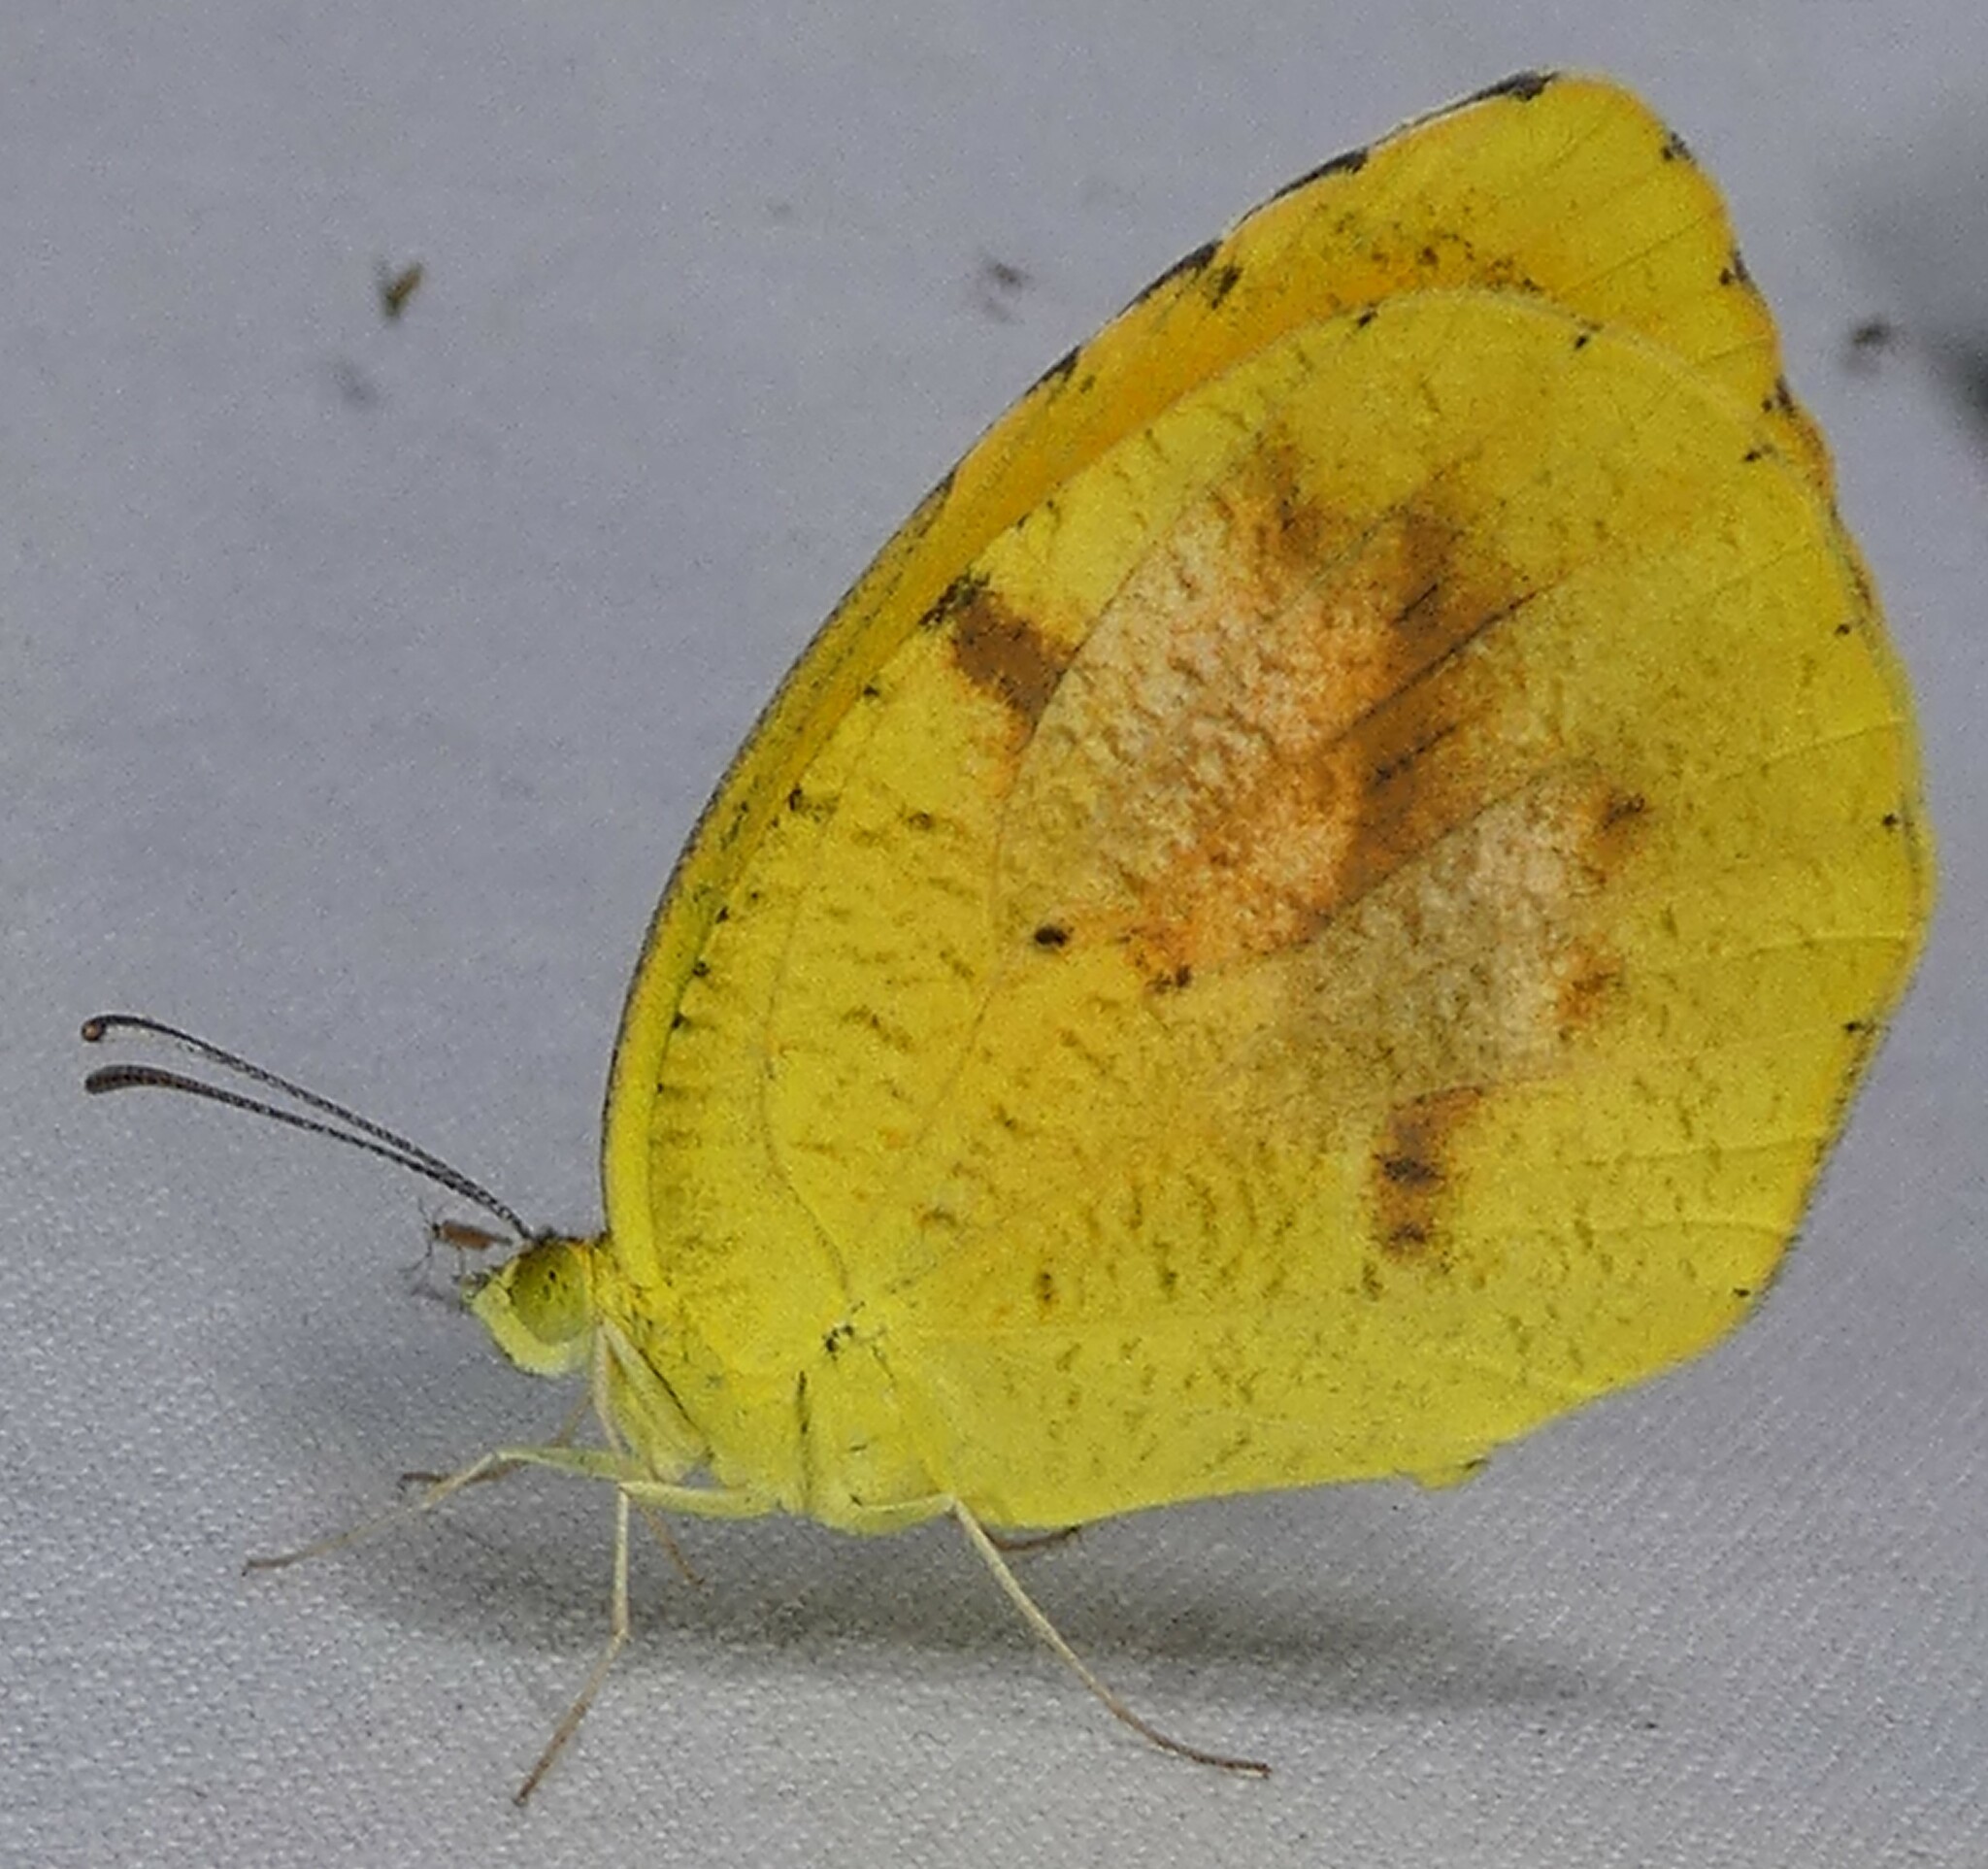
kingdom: Animalia
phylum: Arthropoda
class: Insecta
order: Lepidoptera
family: Pieridae
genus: Abaeis
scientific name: Abaeis nicippe
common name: Sleepy orange
